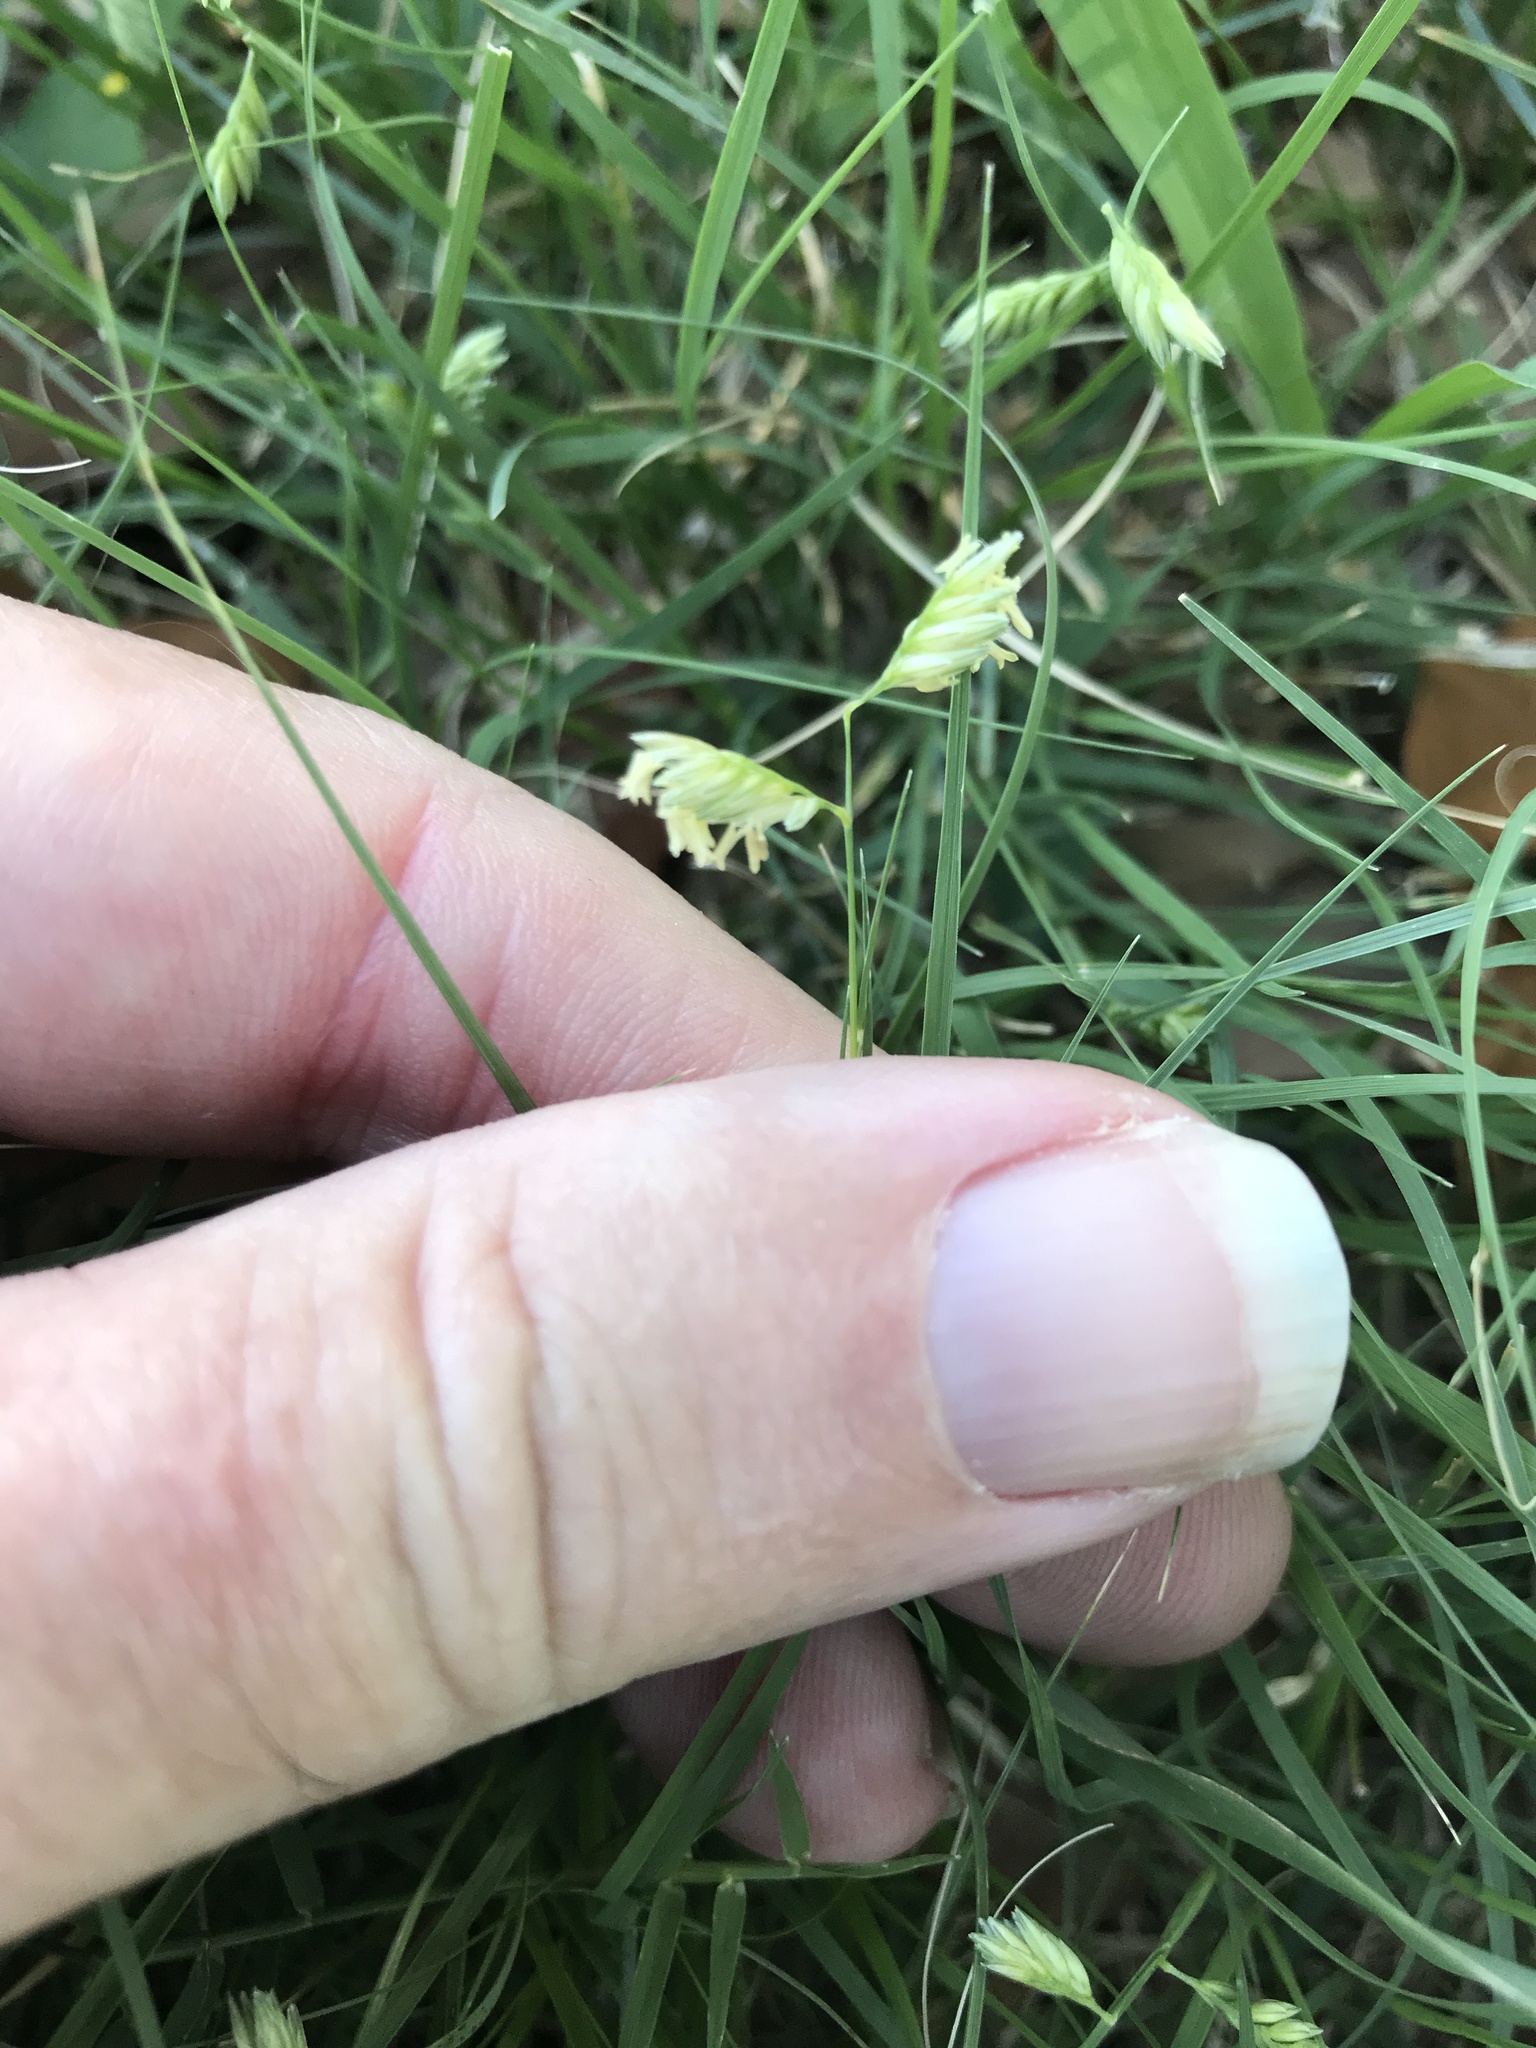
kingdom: Plantae
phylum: Tracheophyta
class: Liliopsida
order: Poales
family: Poaceae
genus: Bouteloua
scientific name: Bouteloua dactyloides
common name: Buffalo grass
